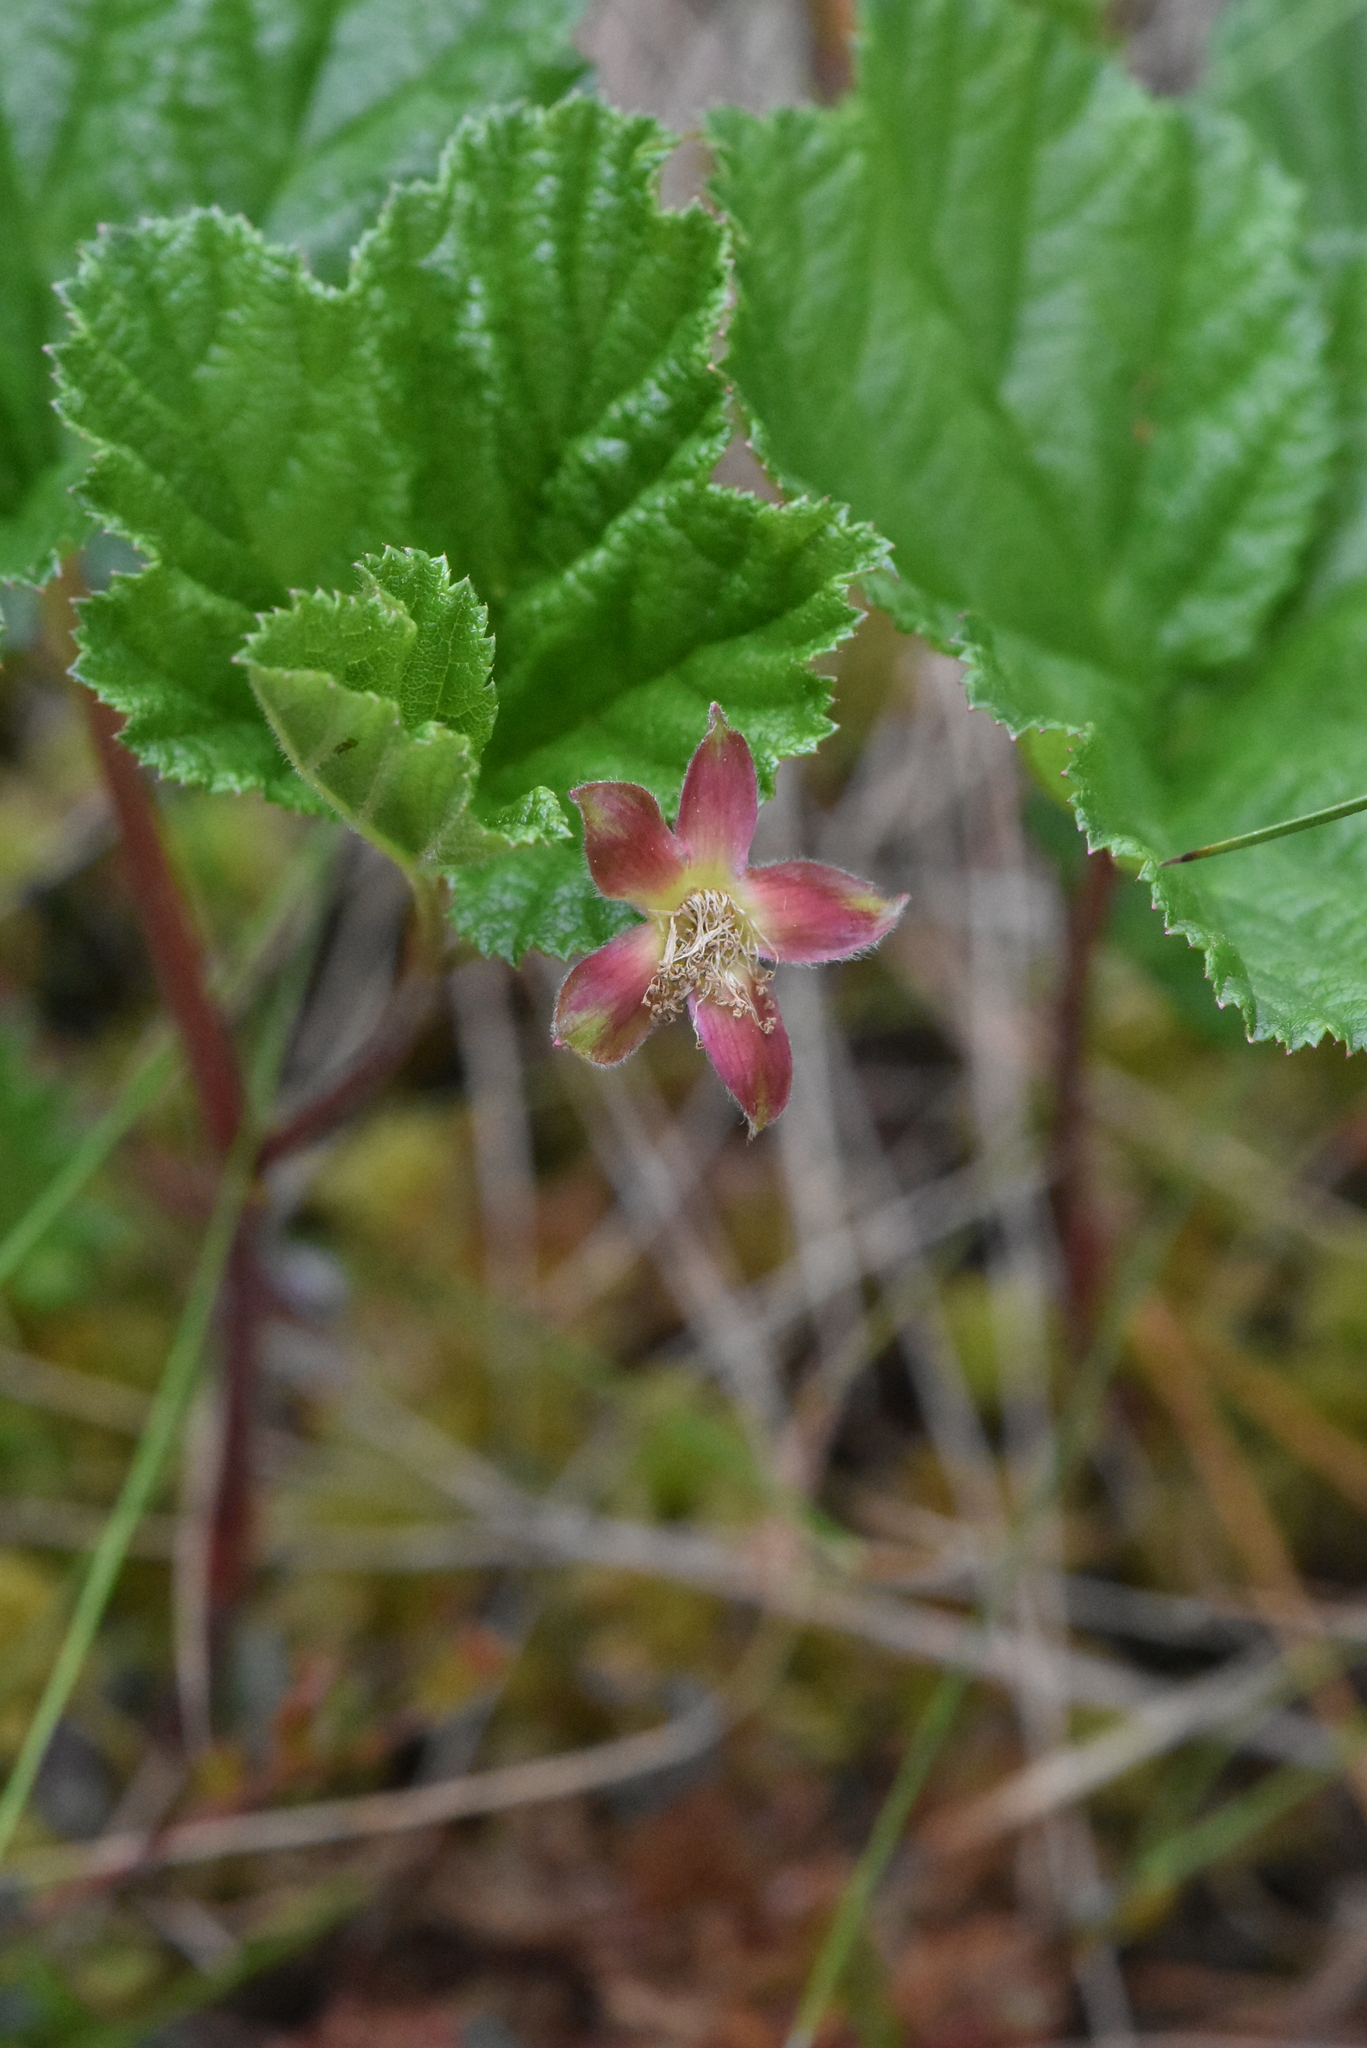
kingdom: Plantae
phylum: Tracheophyta
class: Magnoliopsida
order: Rosales
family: Rosaceae
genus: Rubus
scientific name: Rubus chamaemorus
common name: Cloudberry
